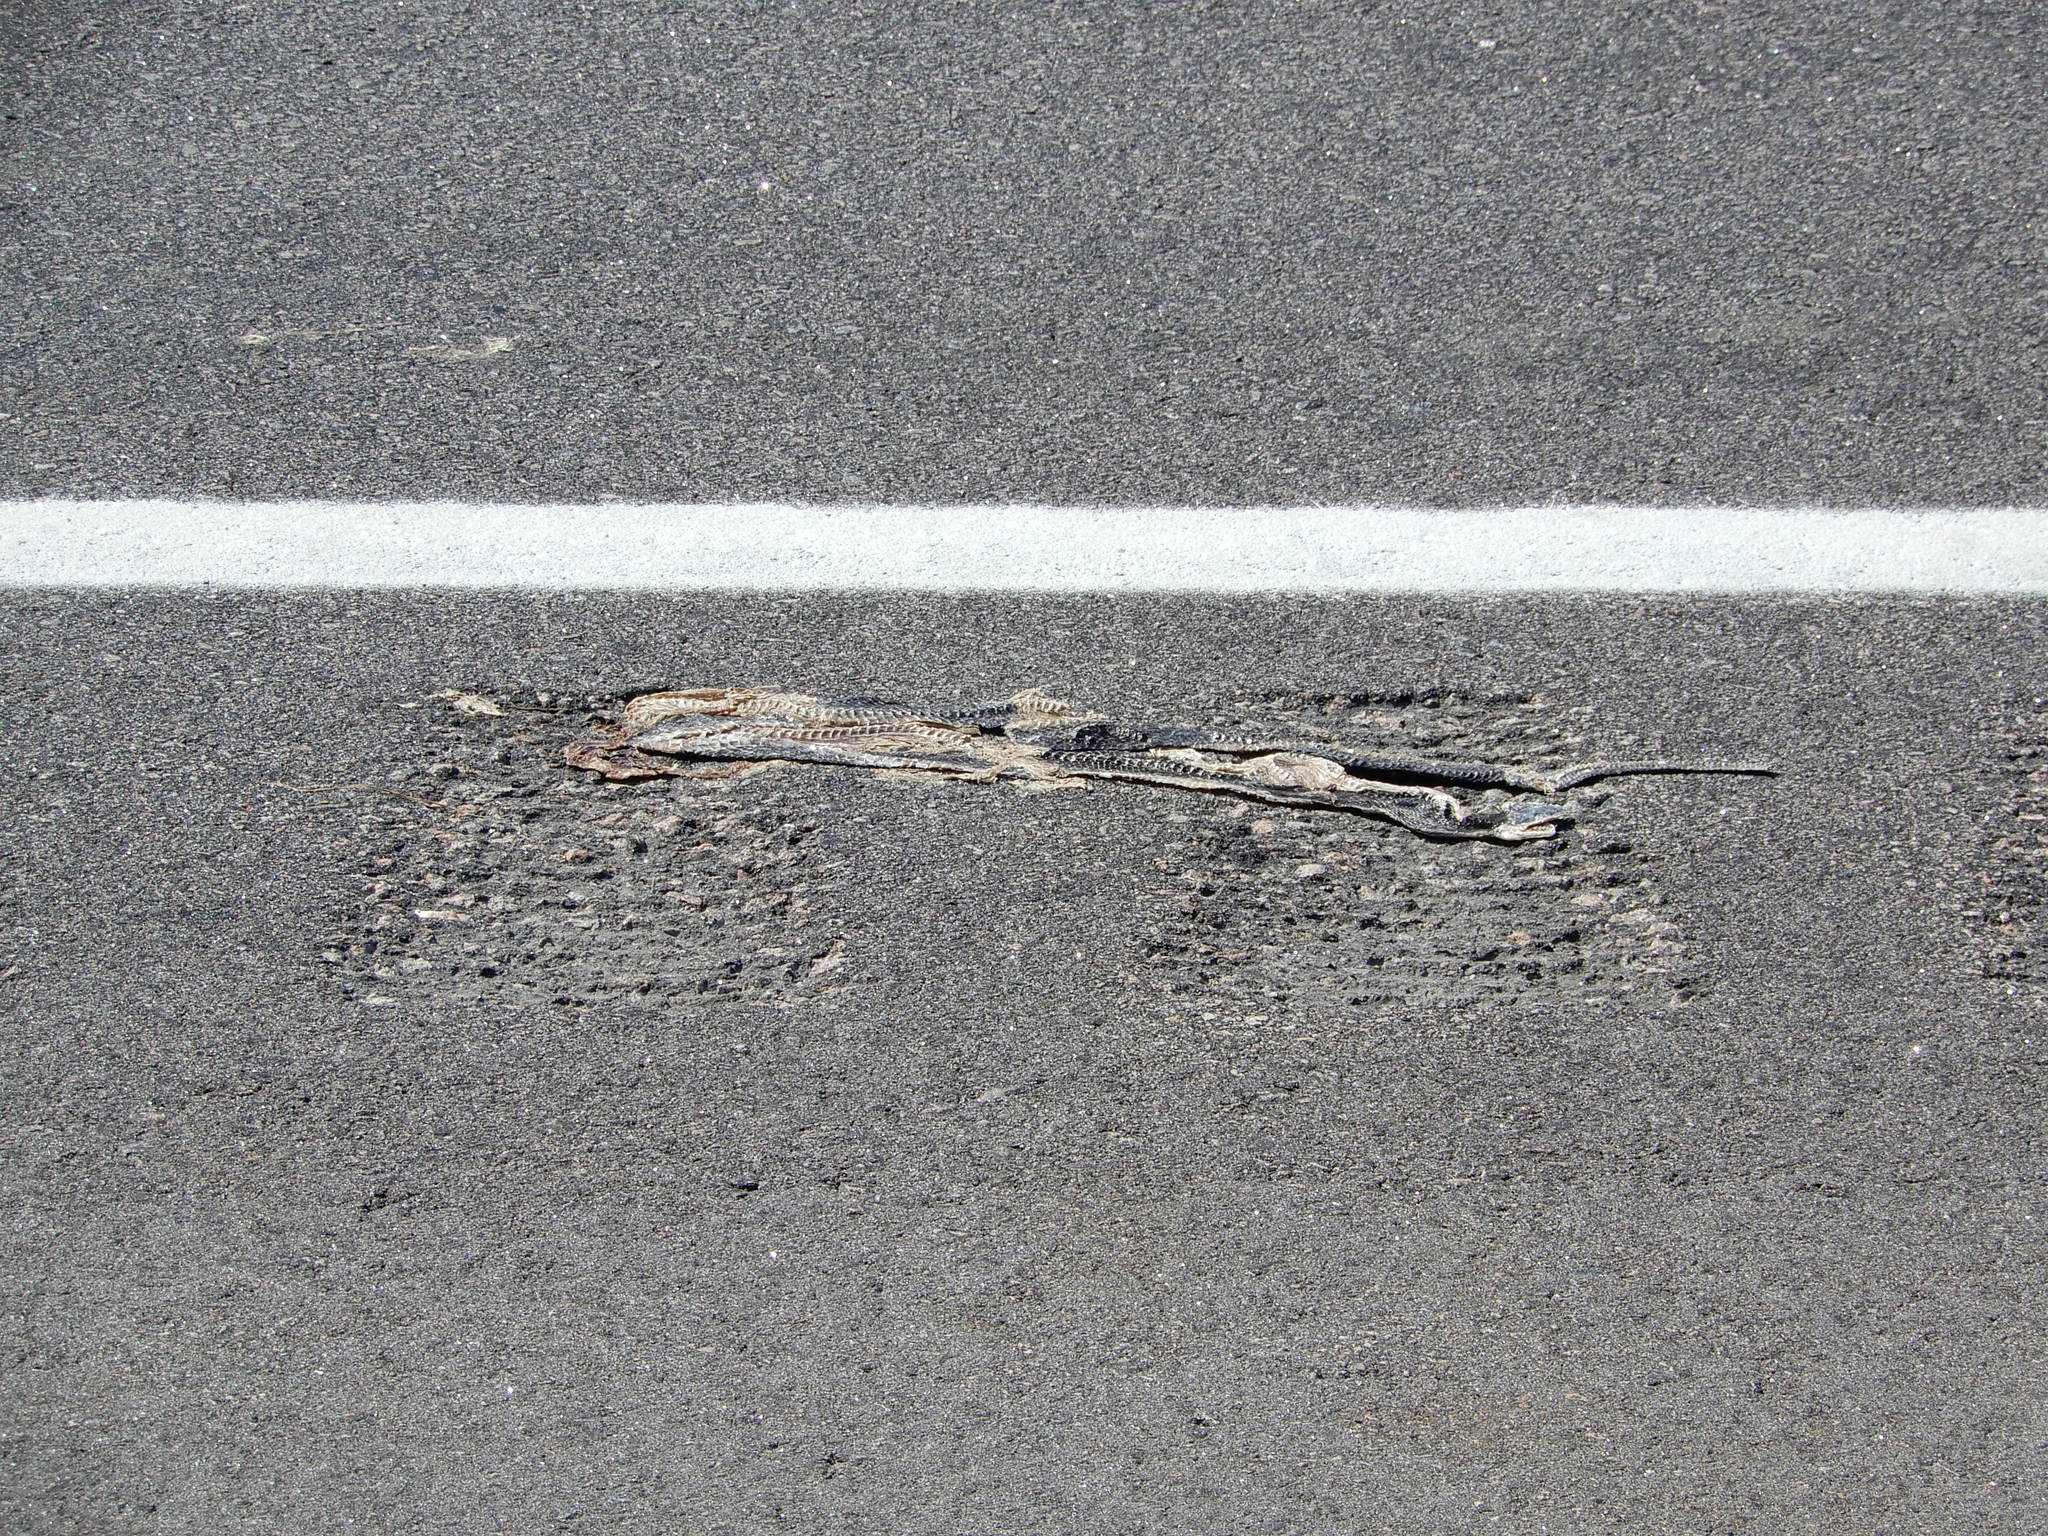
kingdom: Animalia
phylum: Chordata
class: Squamata
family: Colubridae
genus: Nerodia
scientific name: Nerodia sipedon
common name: Northern water snake
